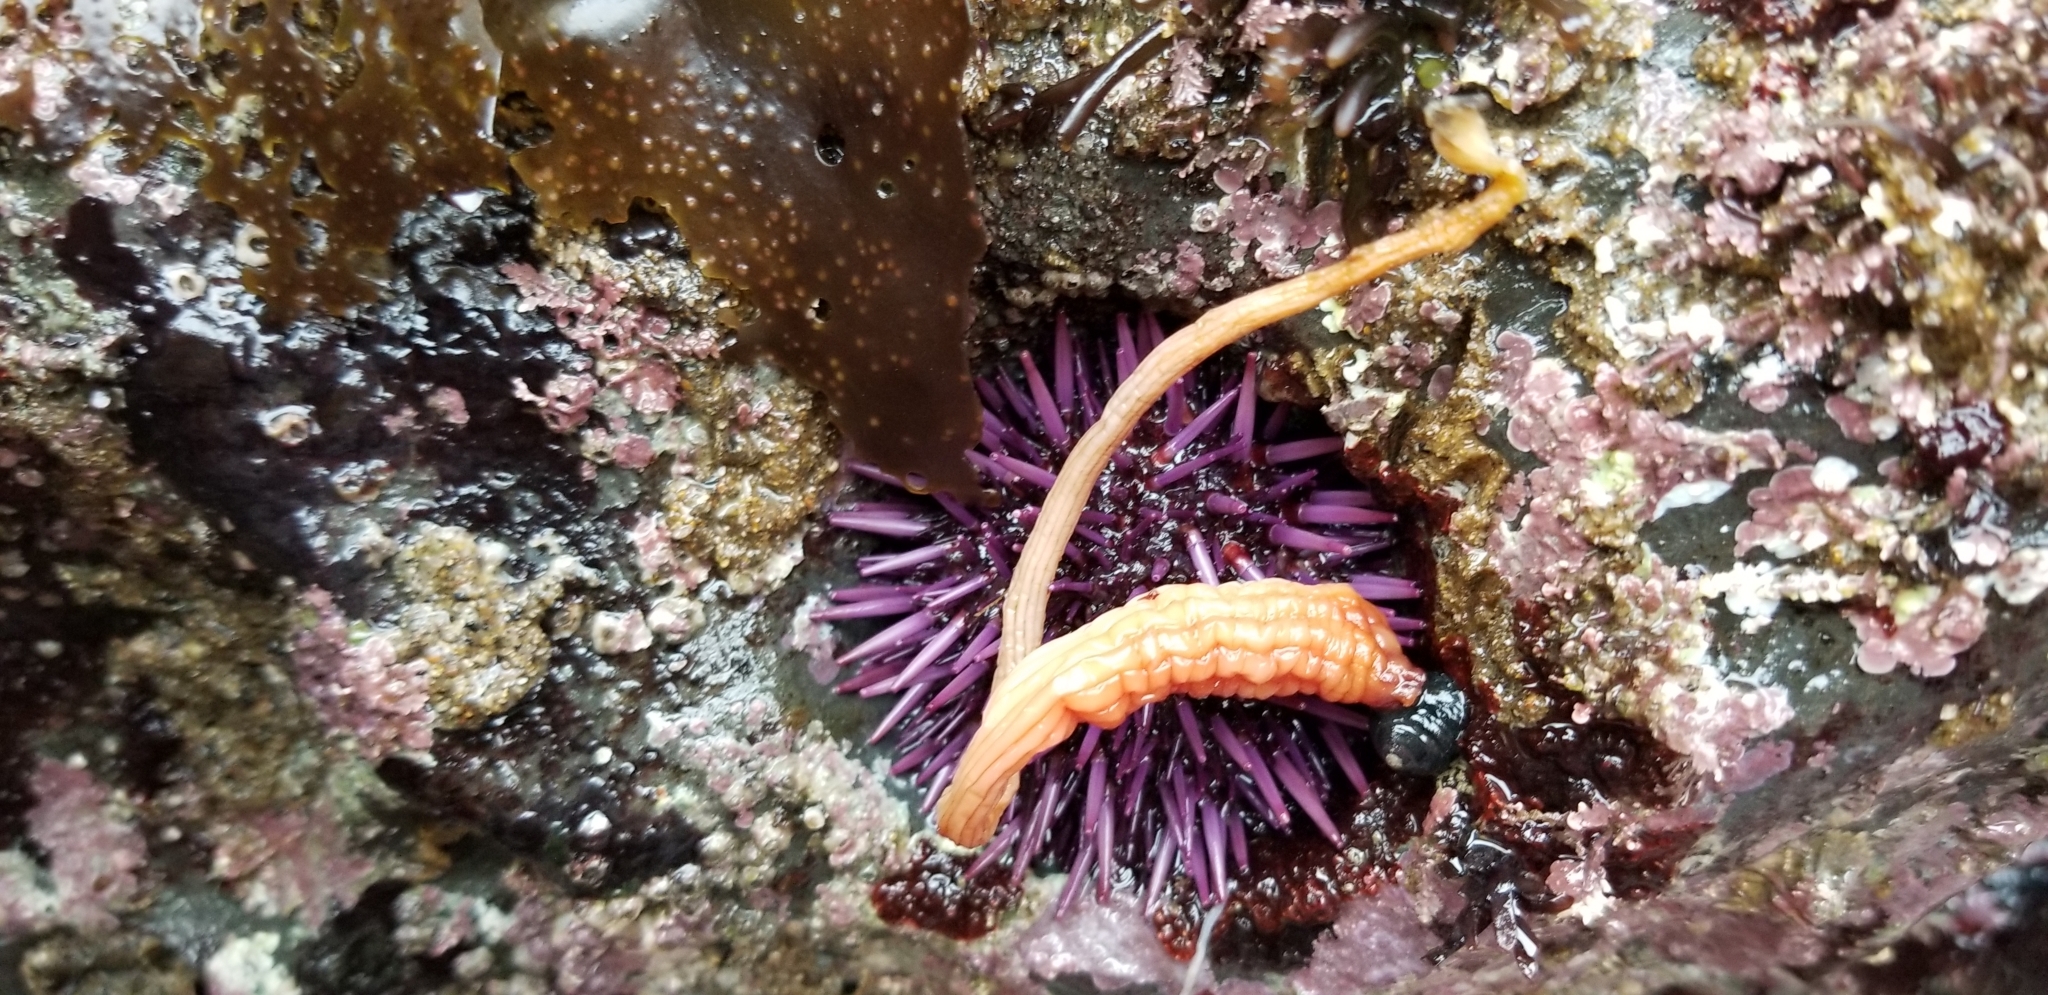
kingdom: Animalia
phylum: Chordata
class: Ascidiacea
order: Stolidobranchia
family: Styelidae
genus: Styela
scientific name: Styela montereyensis
